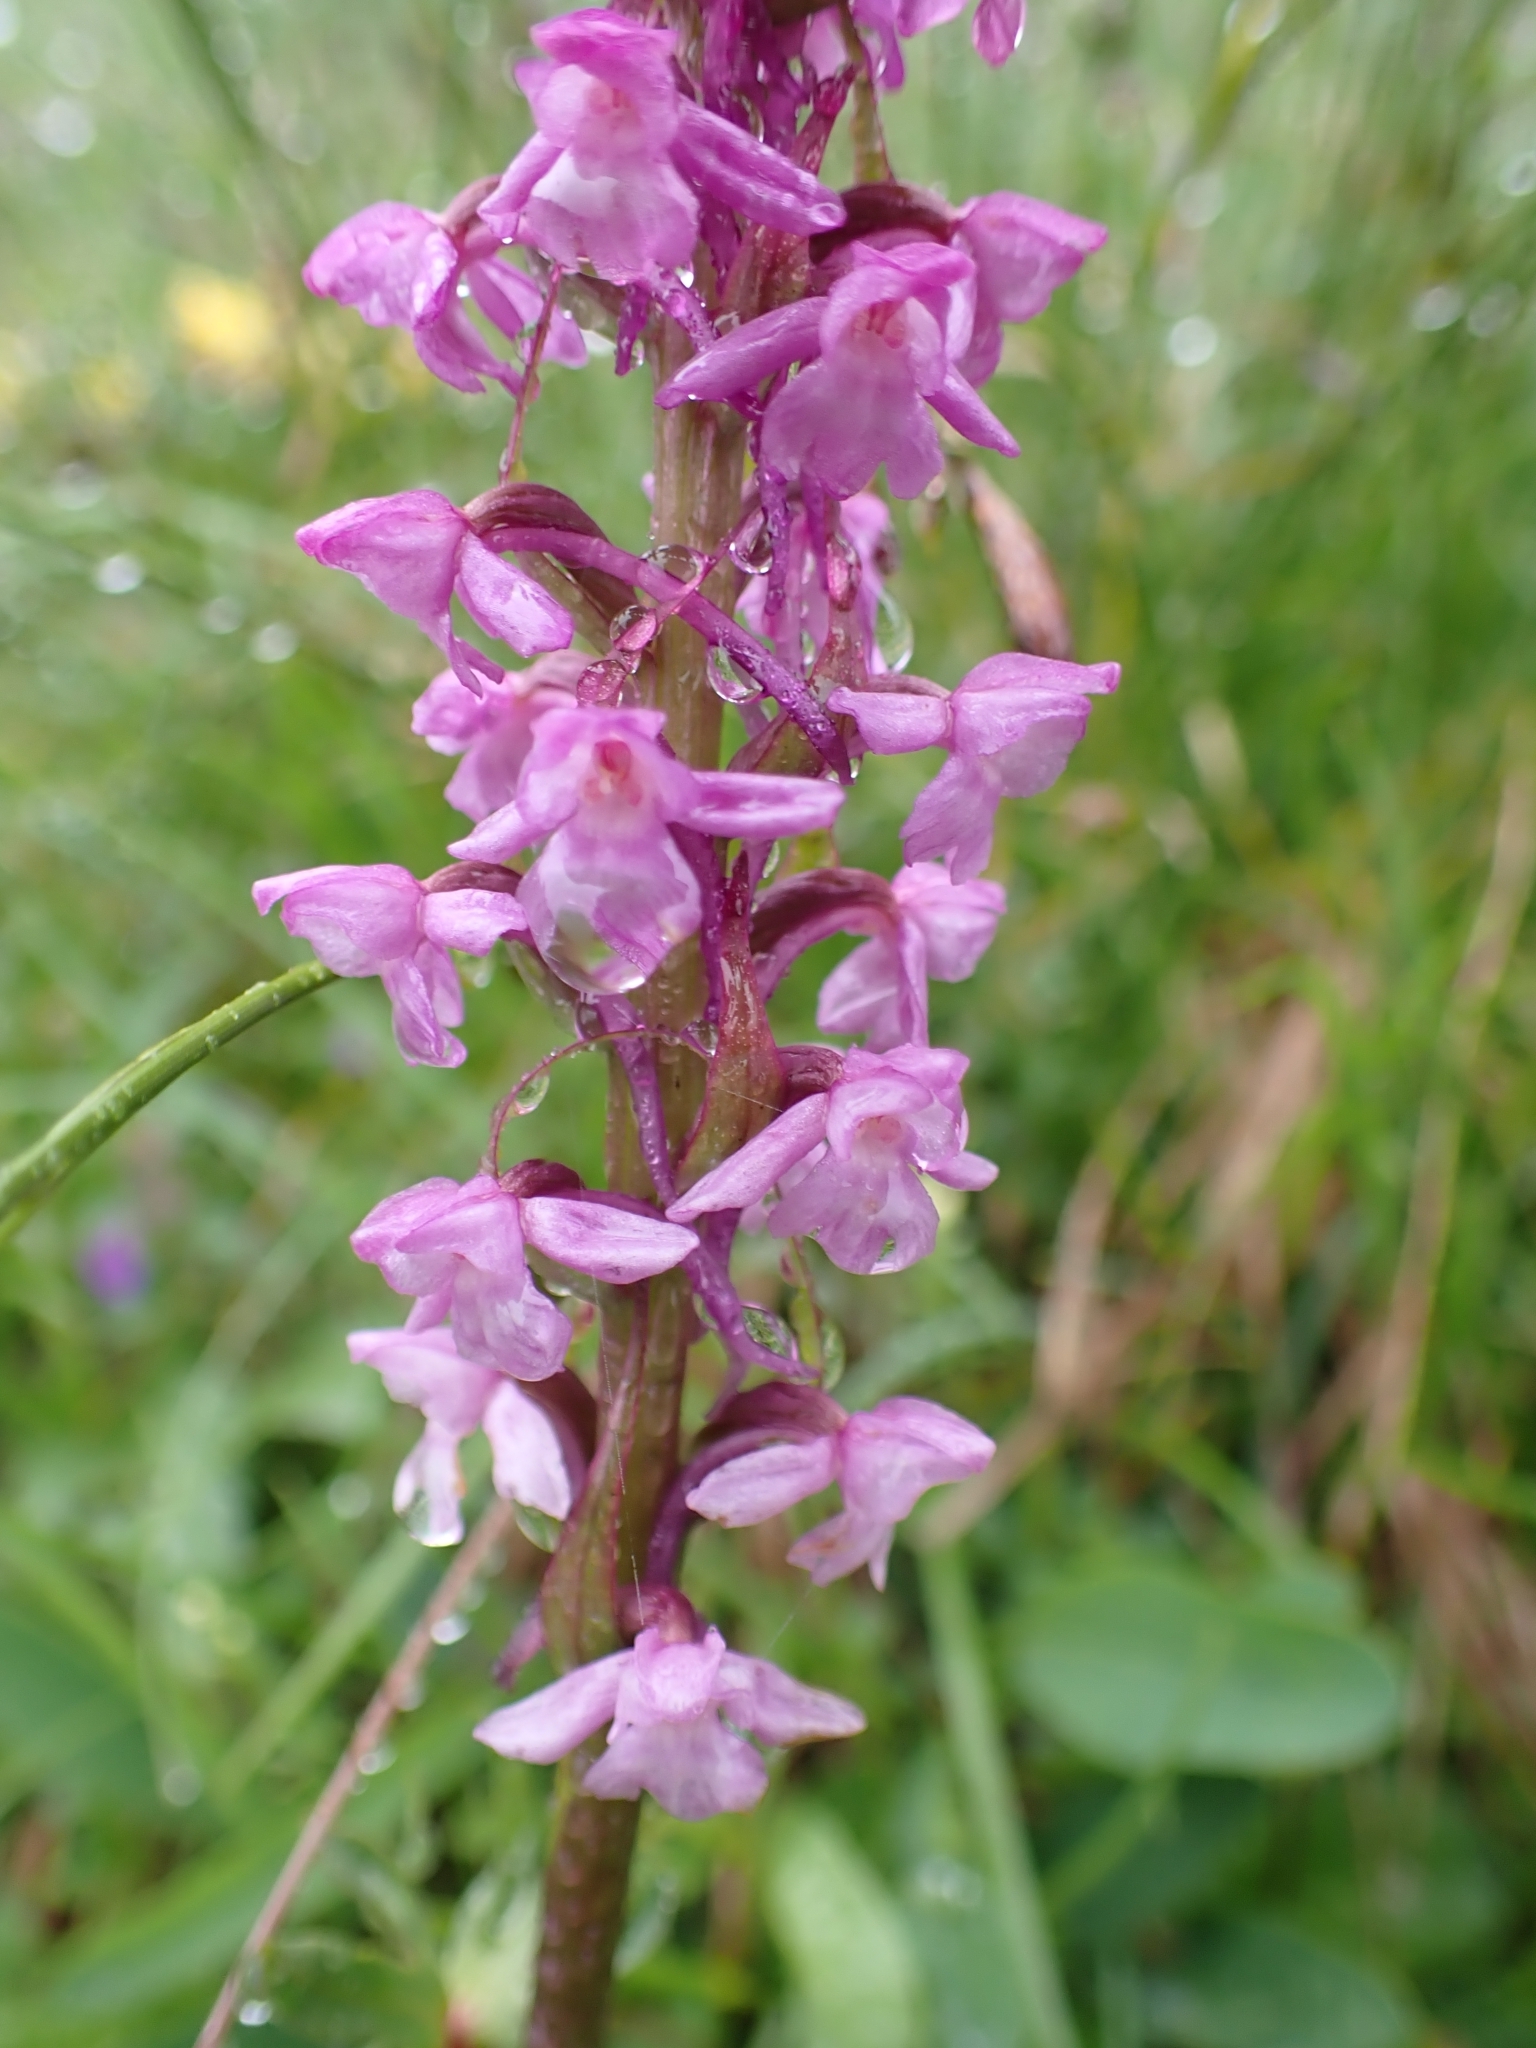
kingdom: Plantae
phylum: Tracheophyta
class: Liliopsida
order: Asparagales
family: Orchidaceae
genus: Gymnadenia
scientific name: Gymnadenia conopsea
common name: Fragrant orchid
